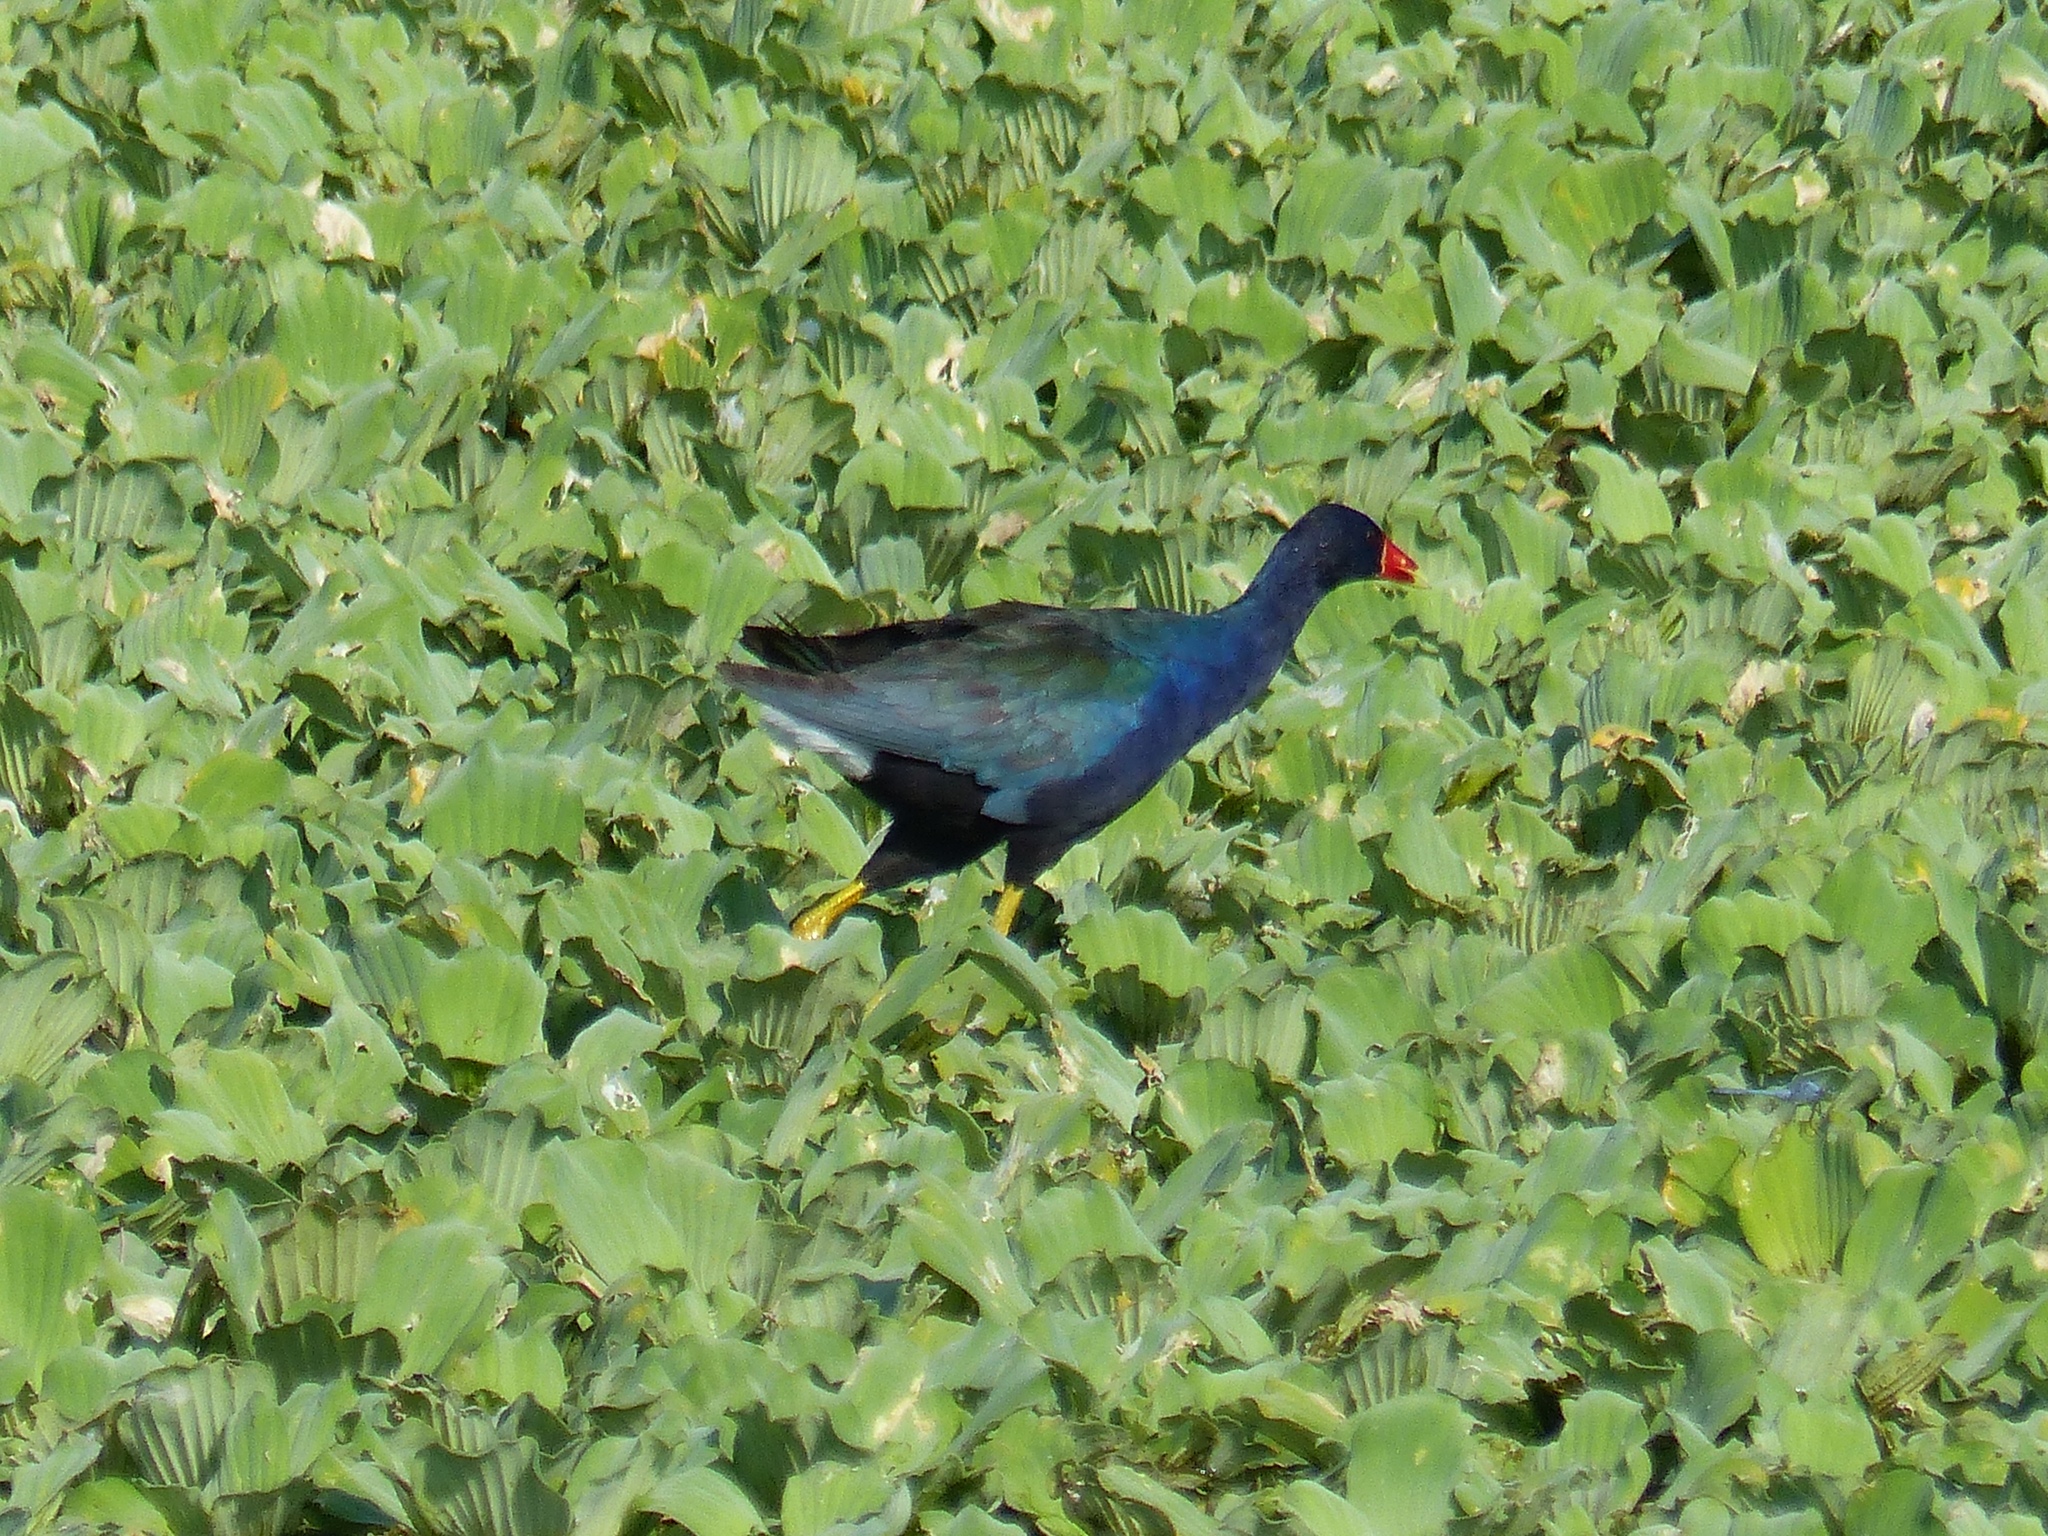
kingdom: Animalia
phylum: Chordata
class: Aves
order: Gruiformes
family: Rallidae
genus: Porphyrio
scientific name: Porphyrio martinica
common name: Purple gallinule
